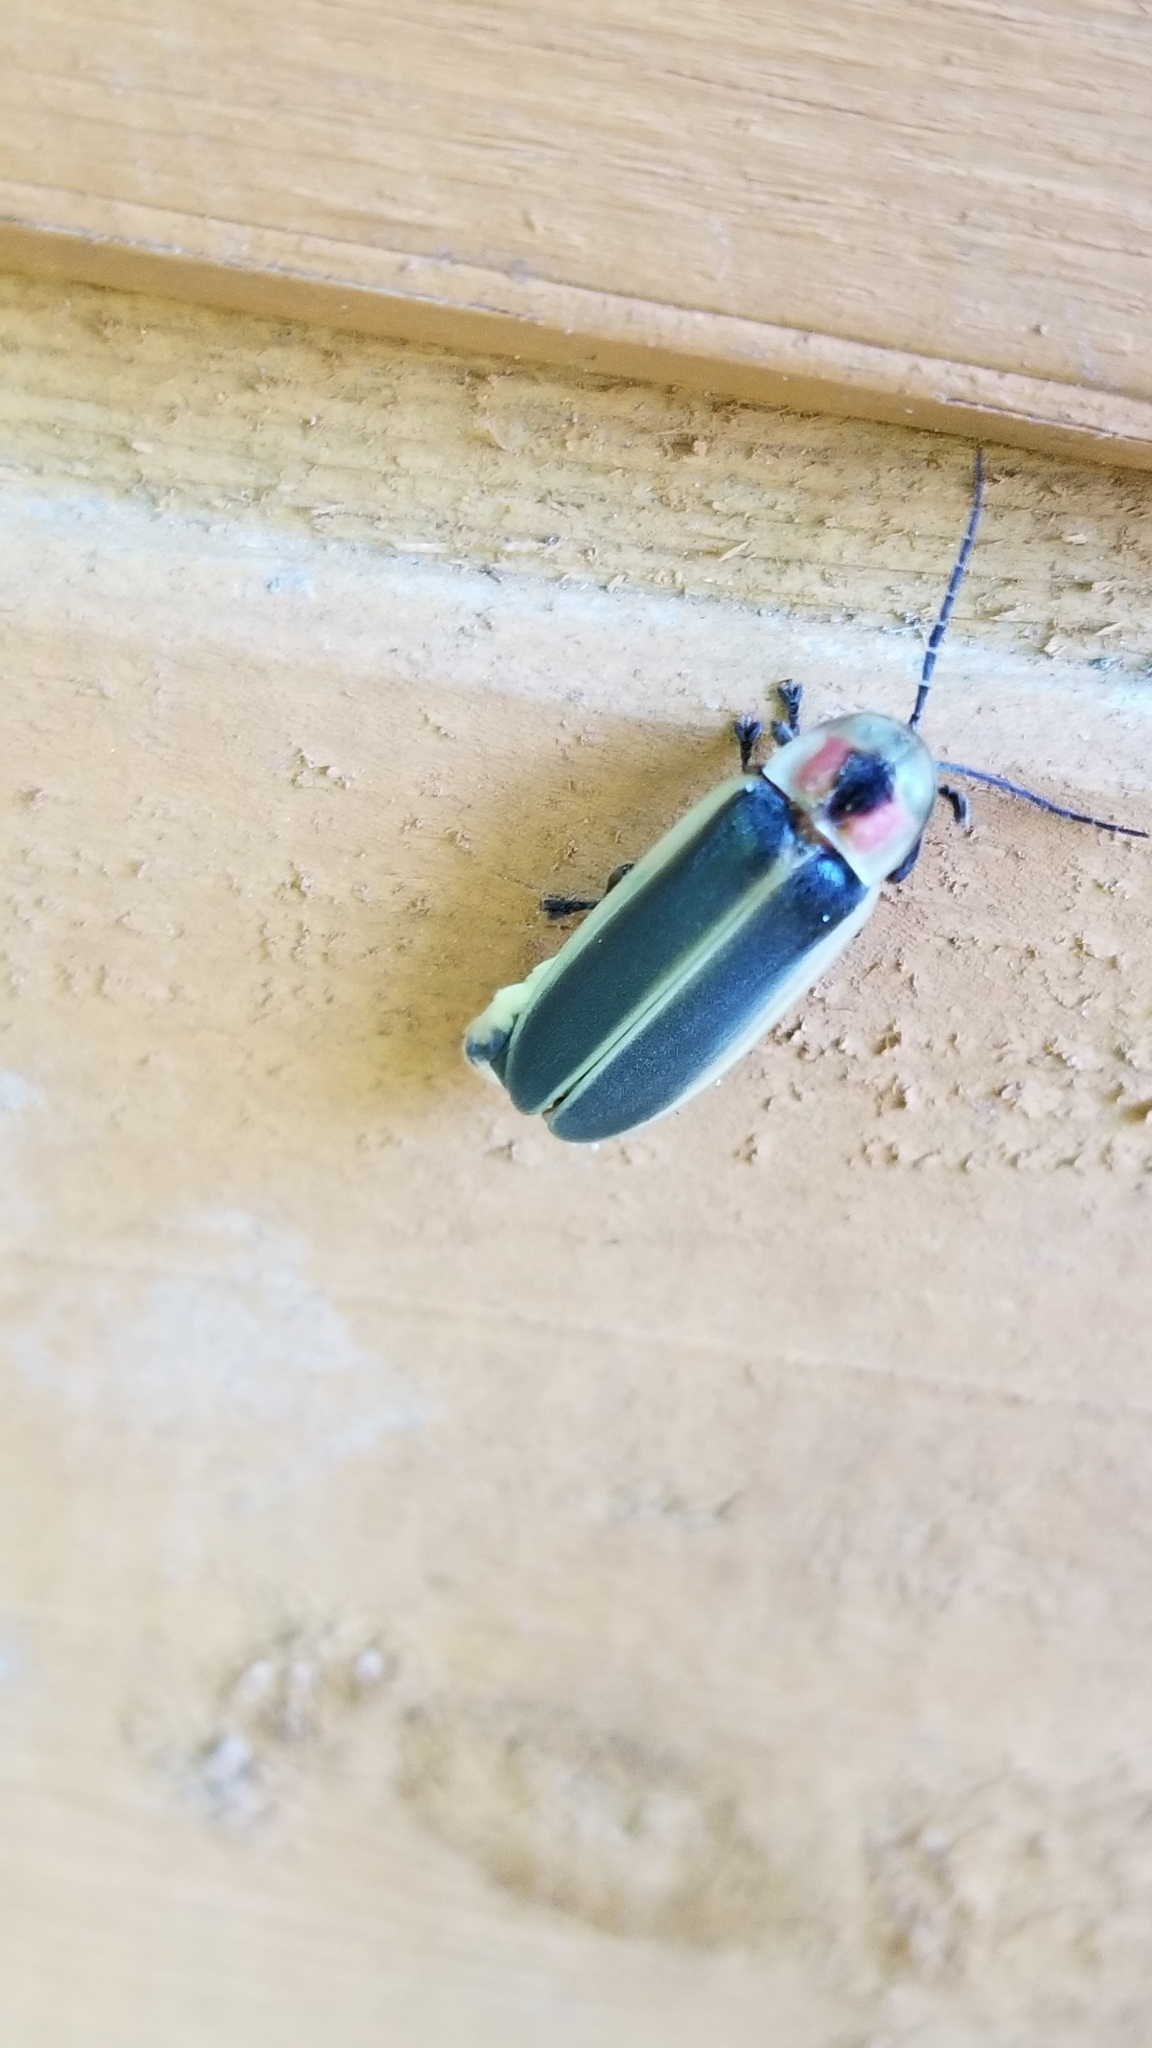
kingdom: Animalia
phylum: Arthropoda
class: Insecta
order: Coleoptera
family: Lampyridae
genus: Photinus
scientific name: Photinus pyralis
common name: Big dipper firefly
